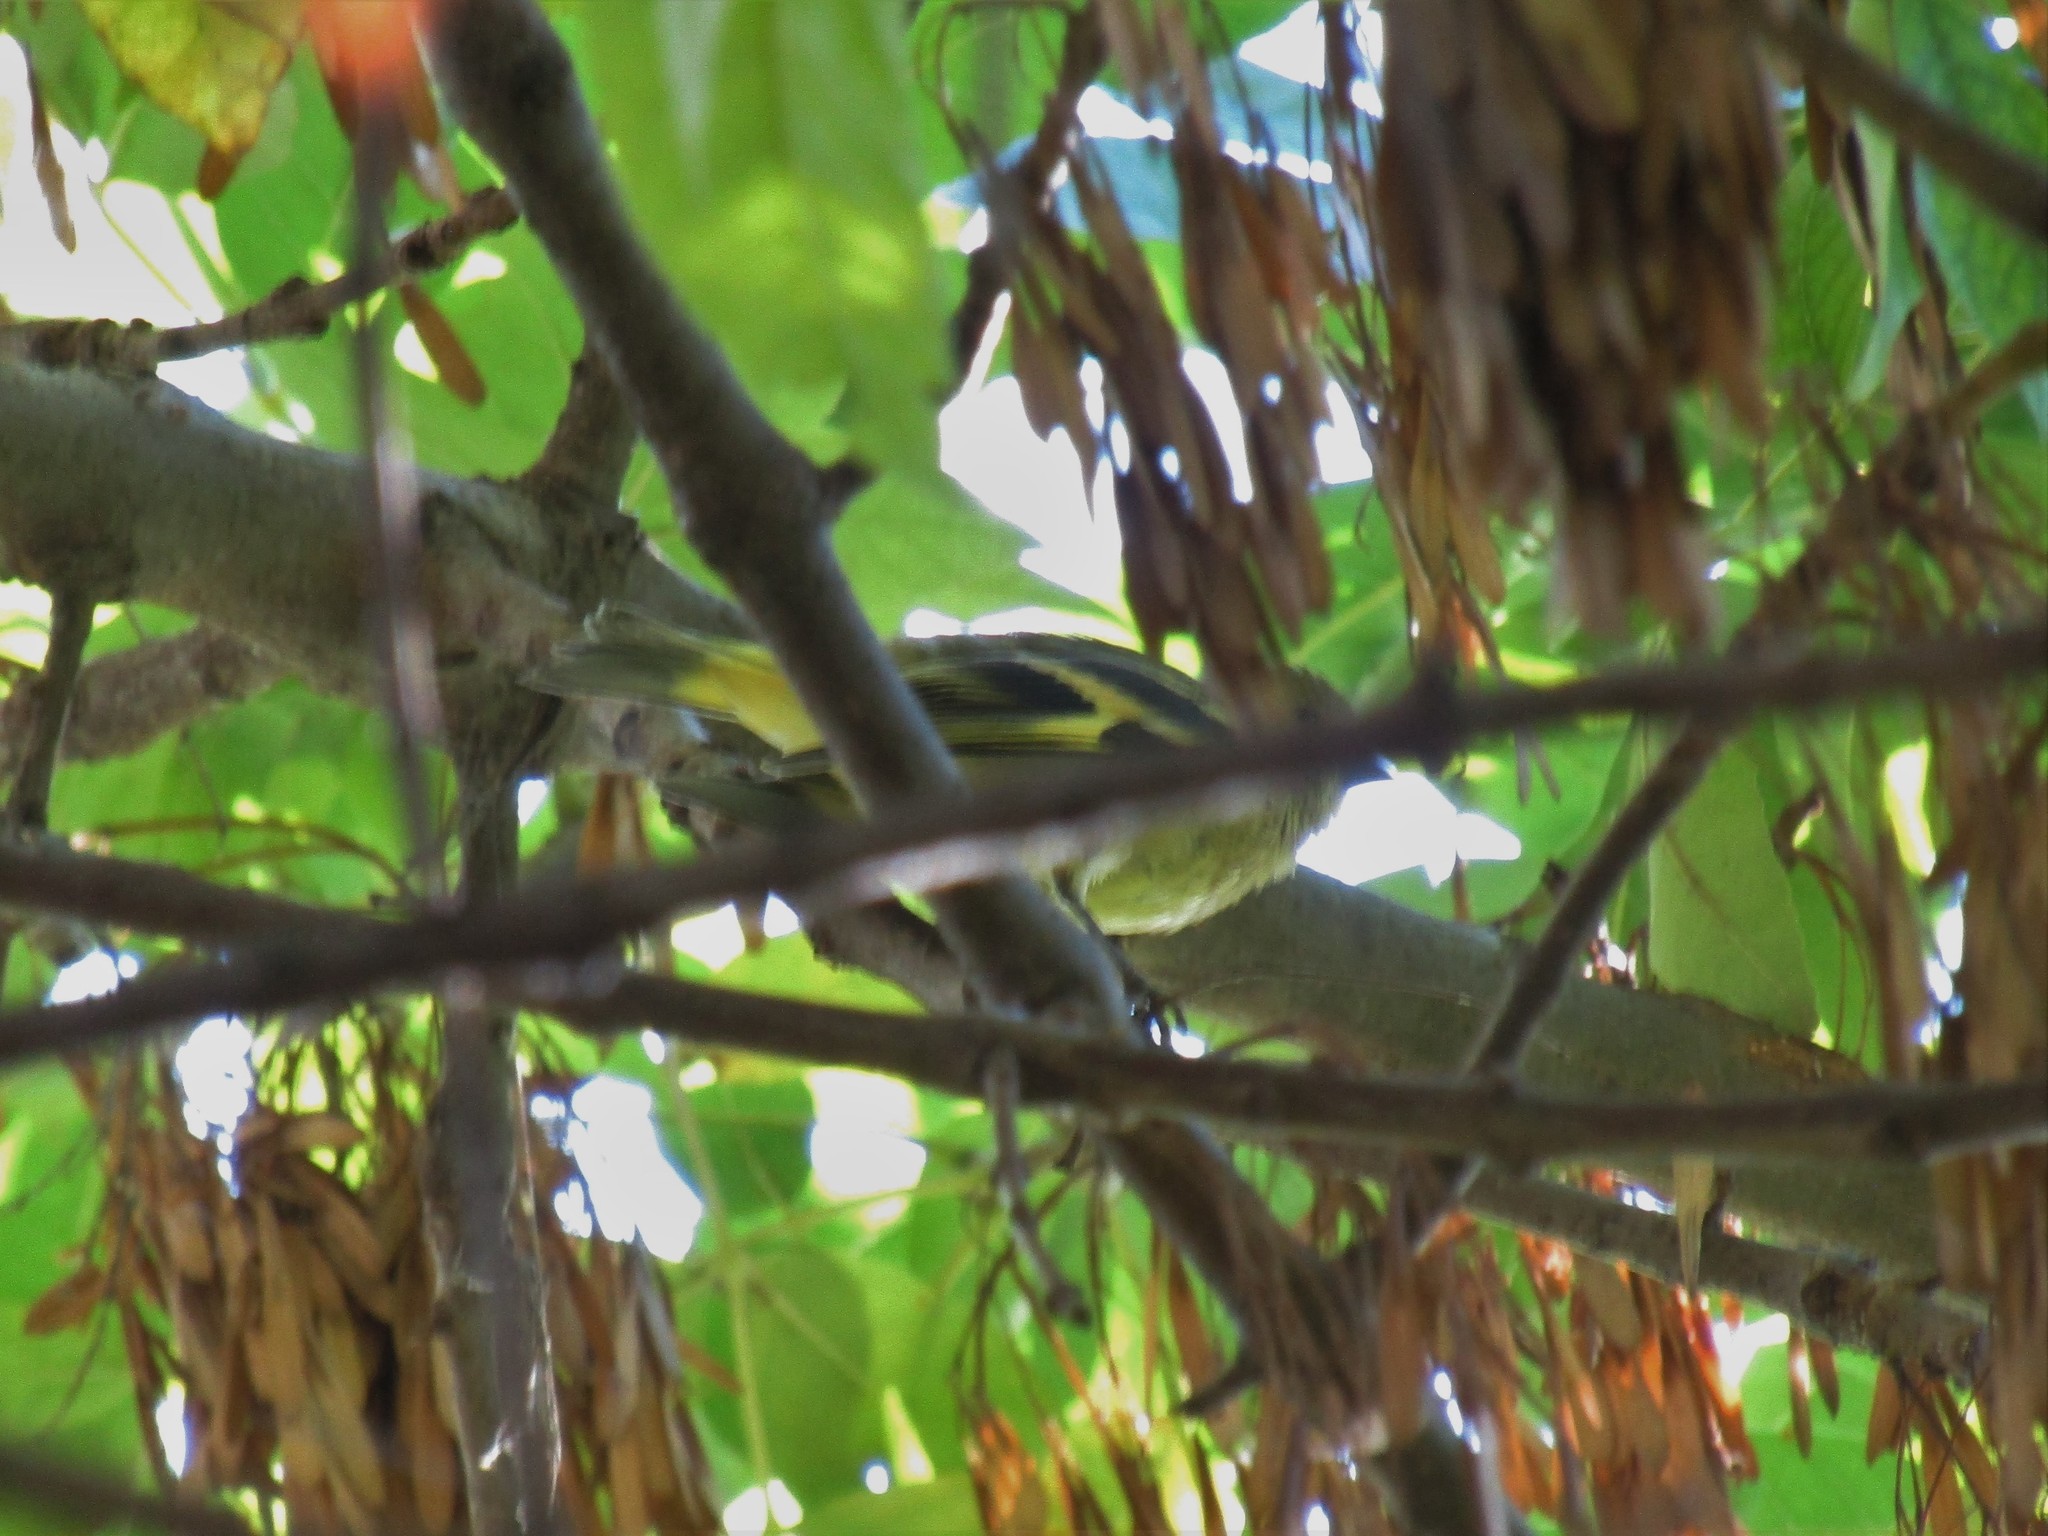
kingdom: Animalia
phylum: Chordata
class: Aves
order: Passeriformes
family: Fringillidae
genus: Spinus
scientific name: Spinus magellanicus
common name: Hooded siskin
